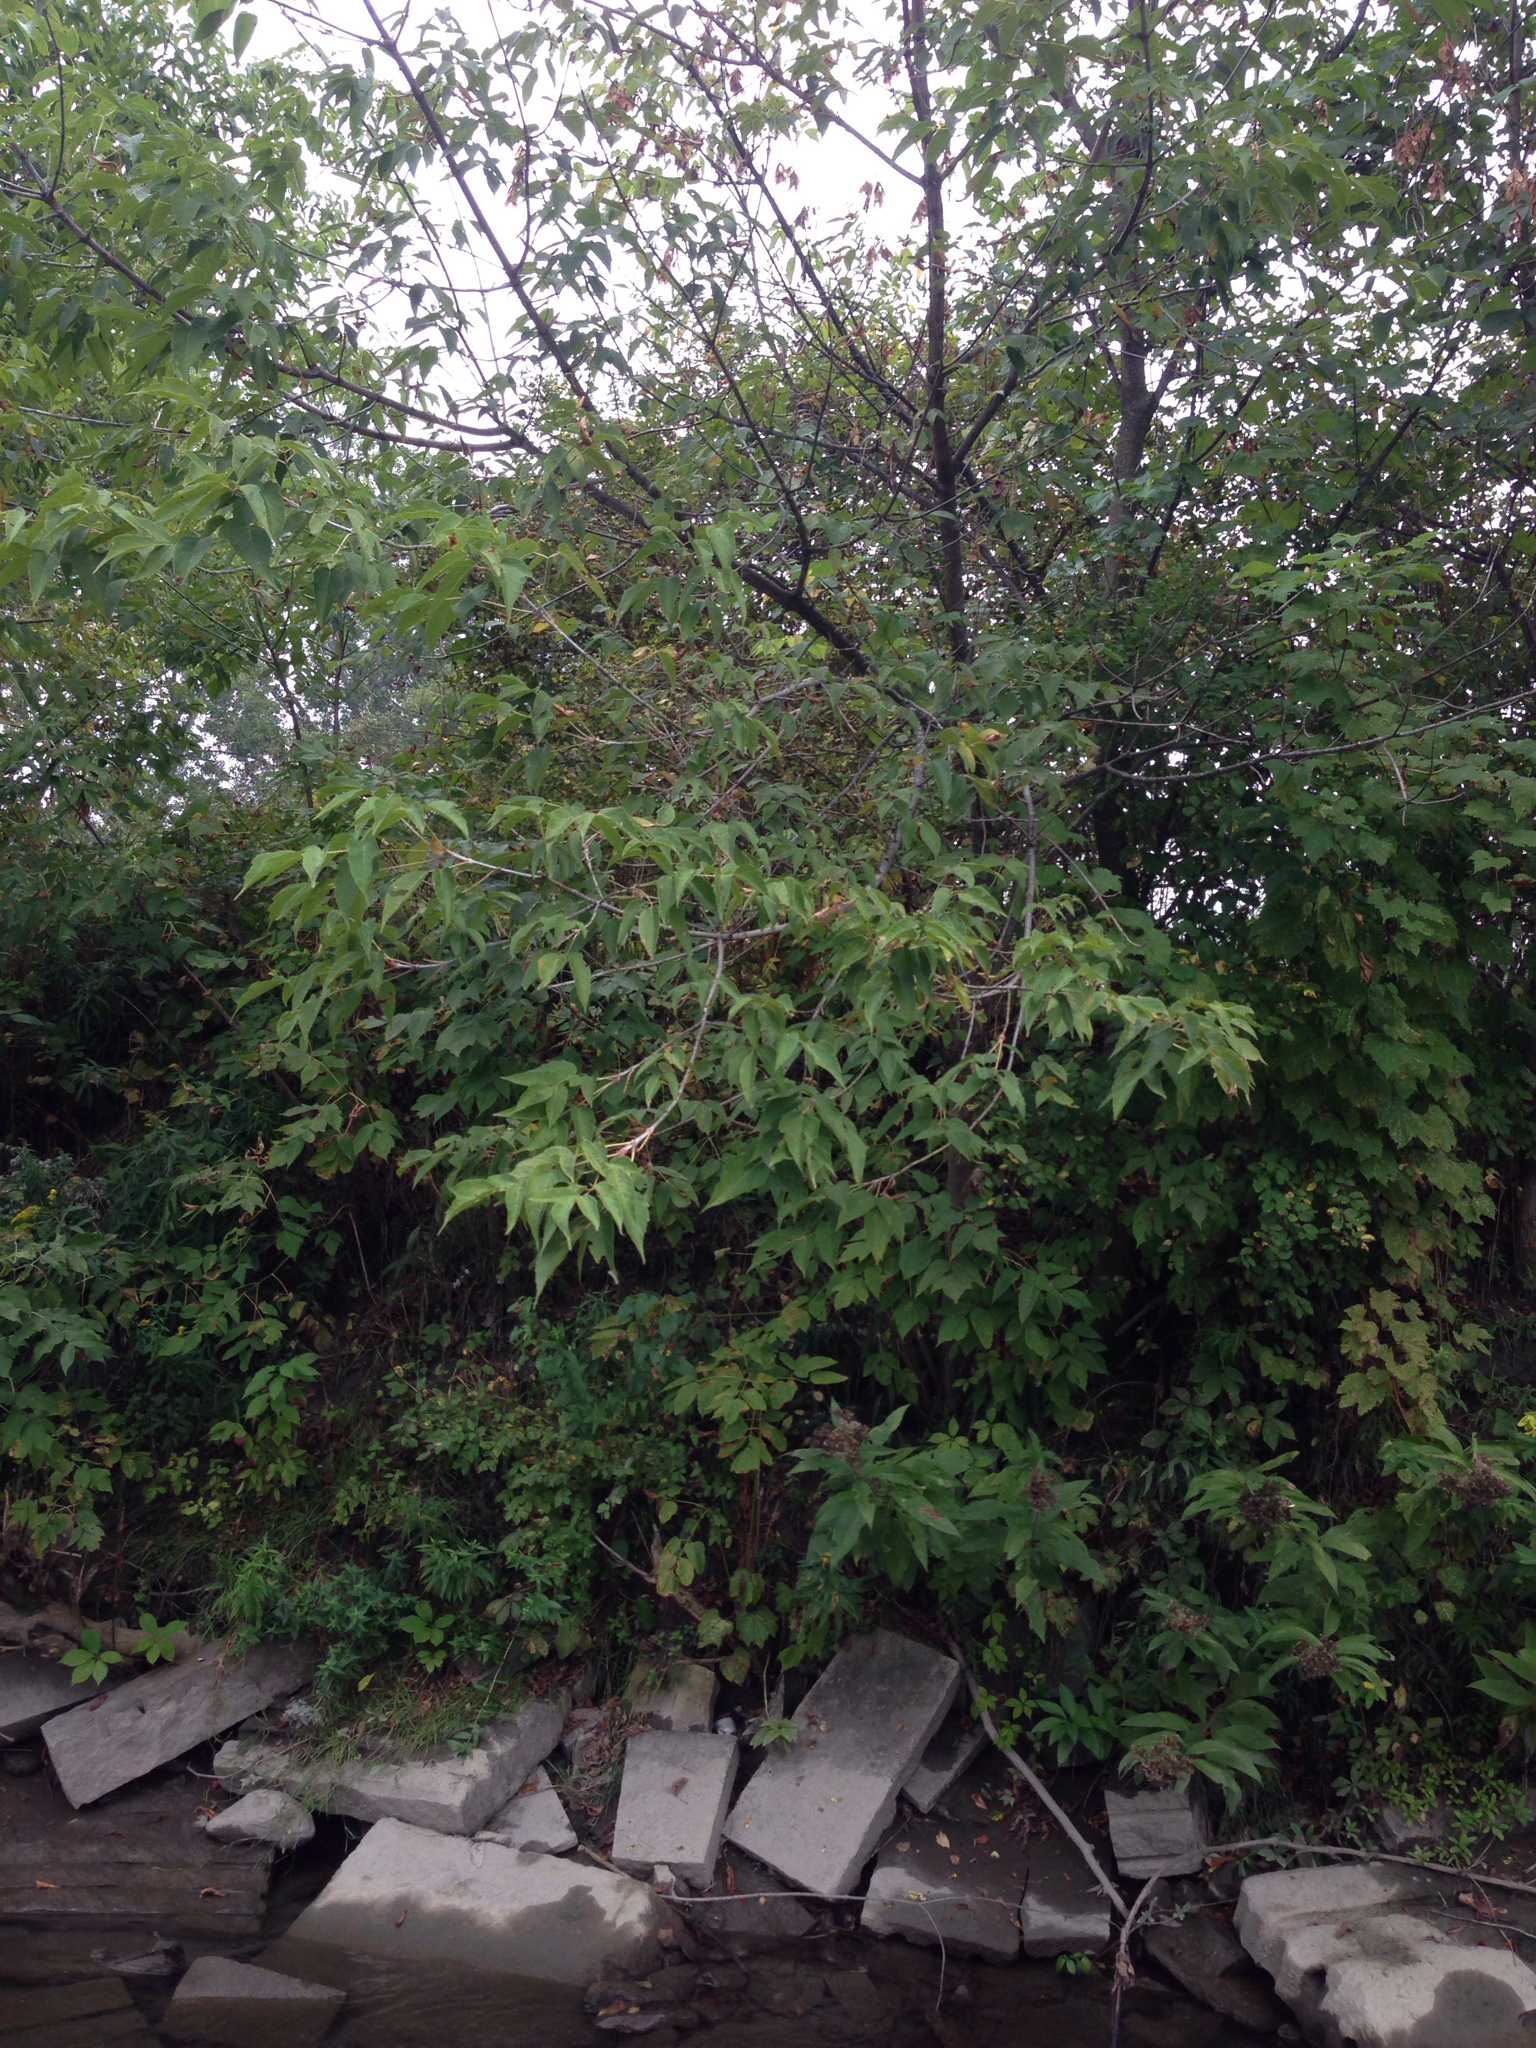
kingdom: Plantae
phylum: Tracheophyta
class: Magnoliopsida
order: Sapindales
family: Sapindaceae
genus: Acer
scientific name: Acer negundo
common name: Ashleaf maple
